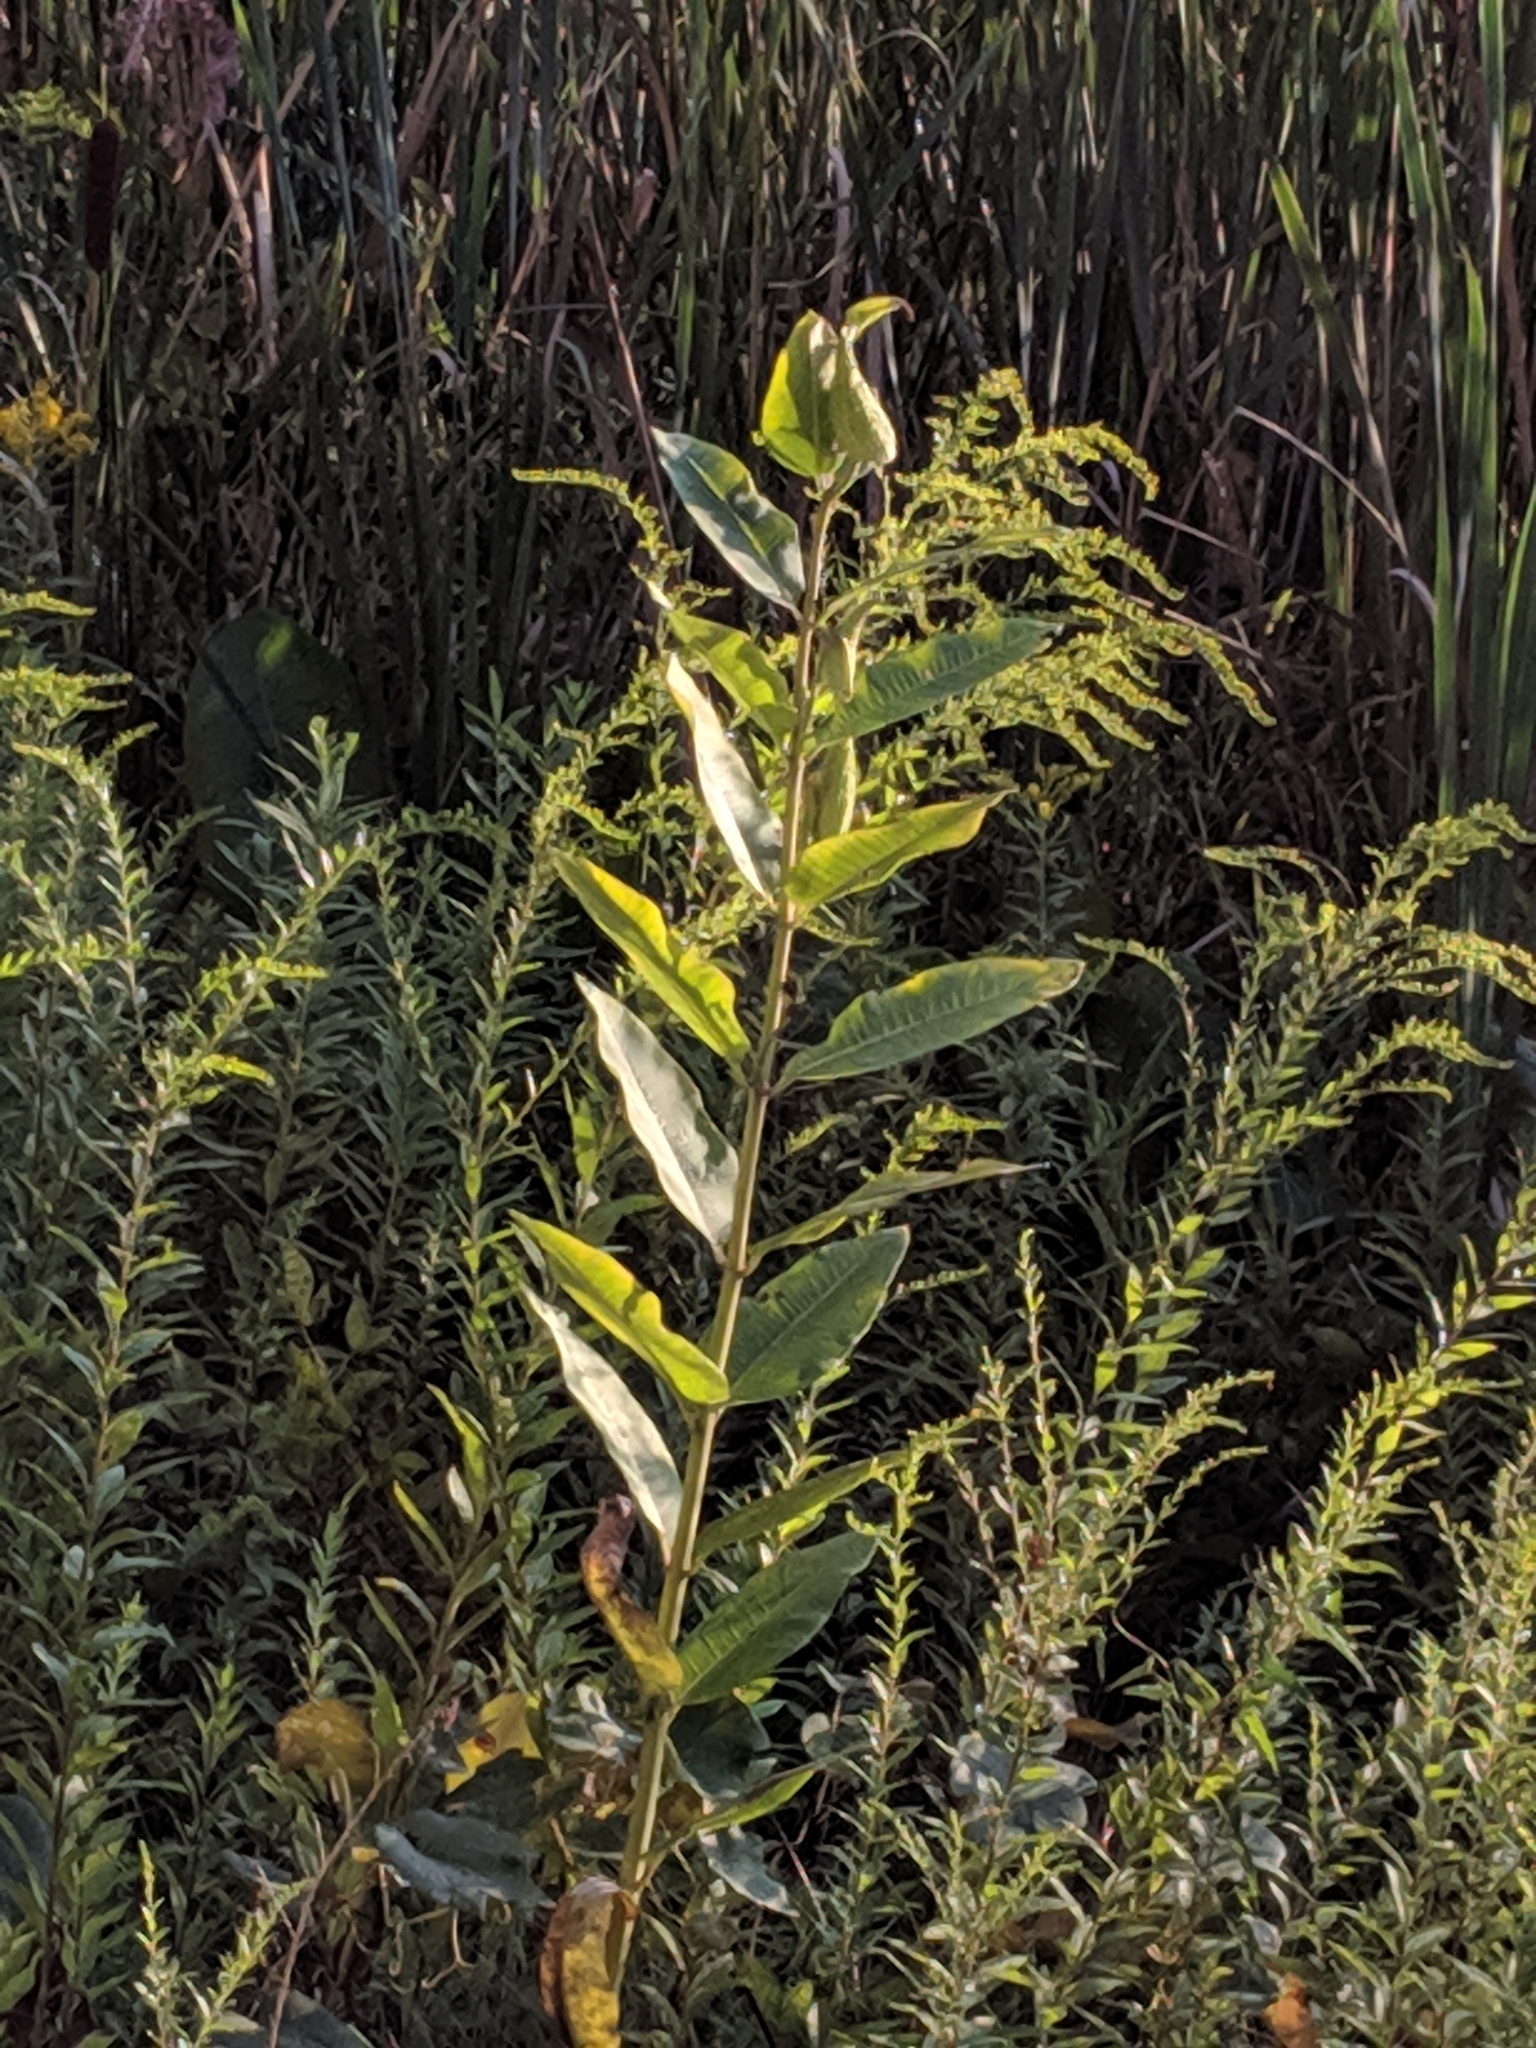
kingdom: Plantae
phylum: Tracheophyta
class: Magnoliopsida
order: Gentianales
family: Apocynaceae
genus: Asclepias
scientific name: Asclepias syriaca
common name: Common milkweed
